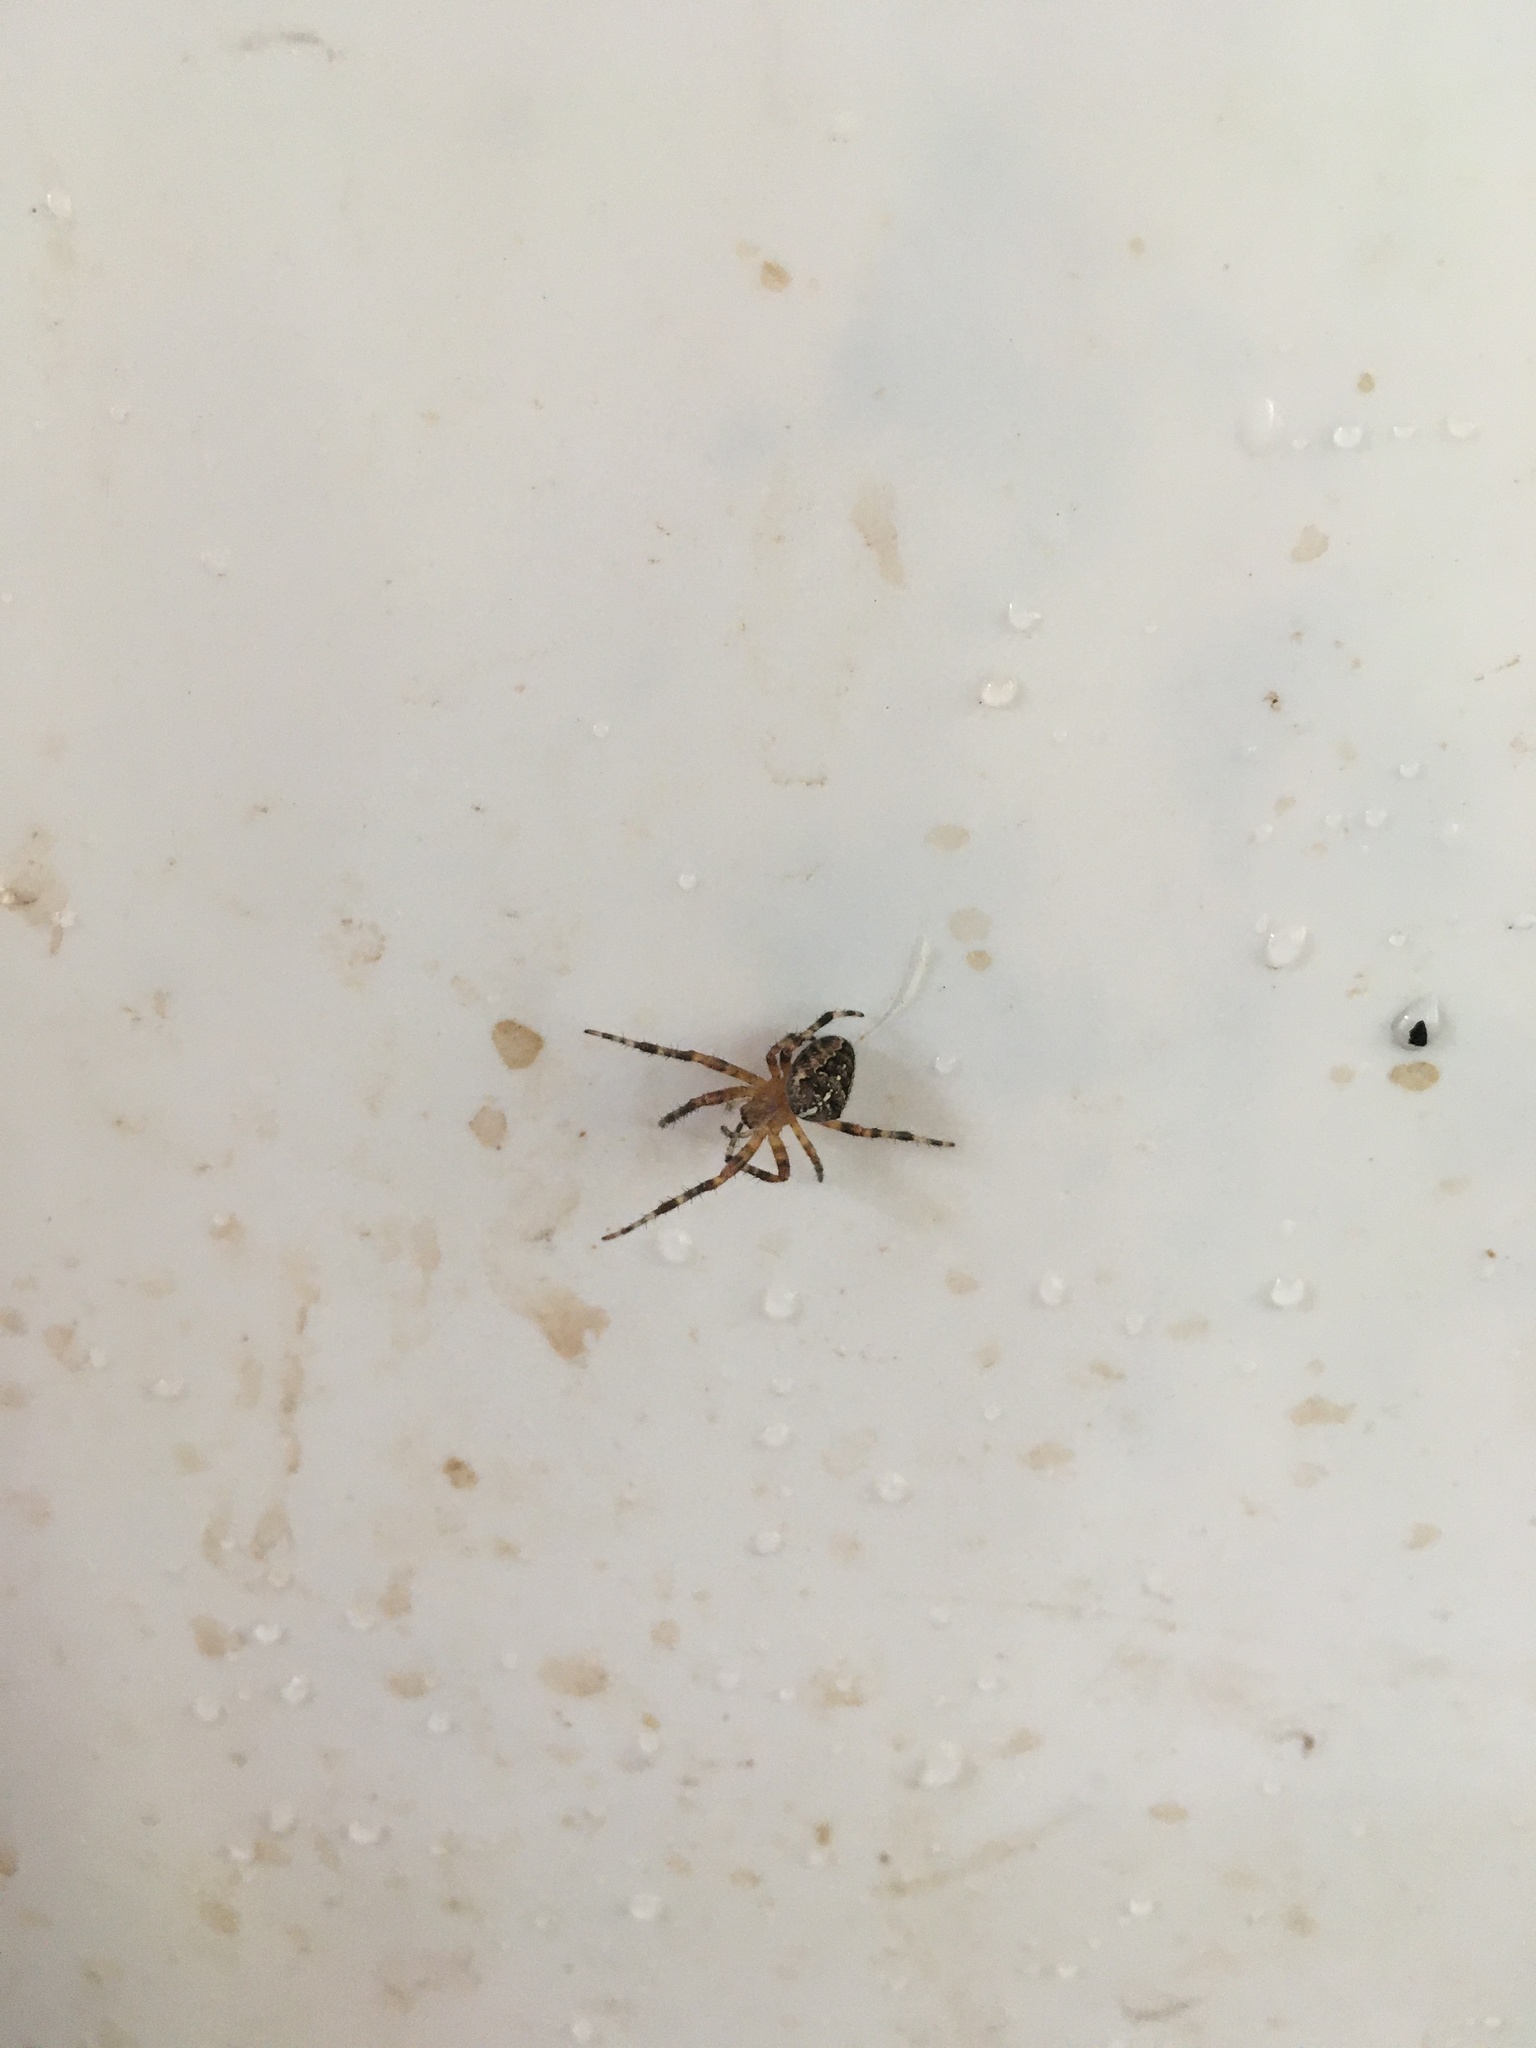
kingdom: Animalia
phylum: Arthropoda
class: Arachnida
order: Araneae
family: Araneidae
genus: Araneus
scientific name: Araneus diadematus
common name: Cross orbweaver
